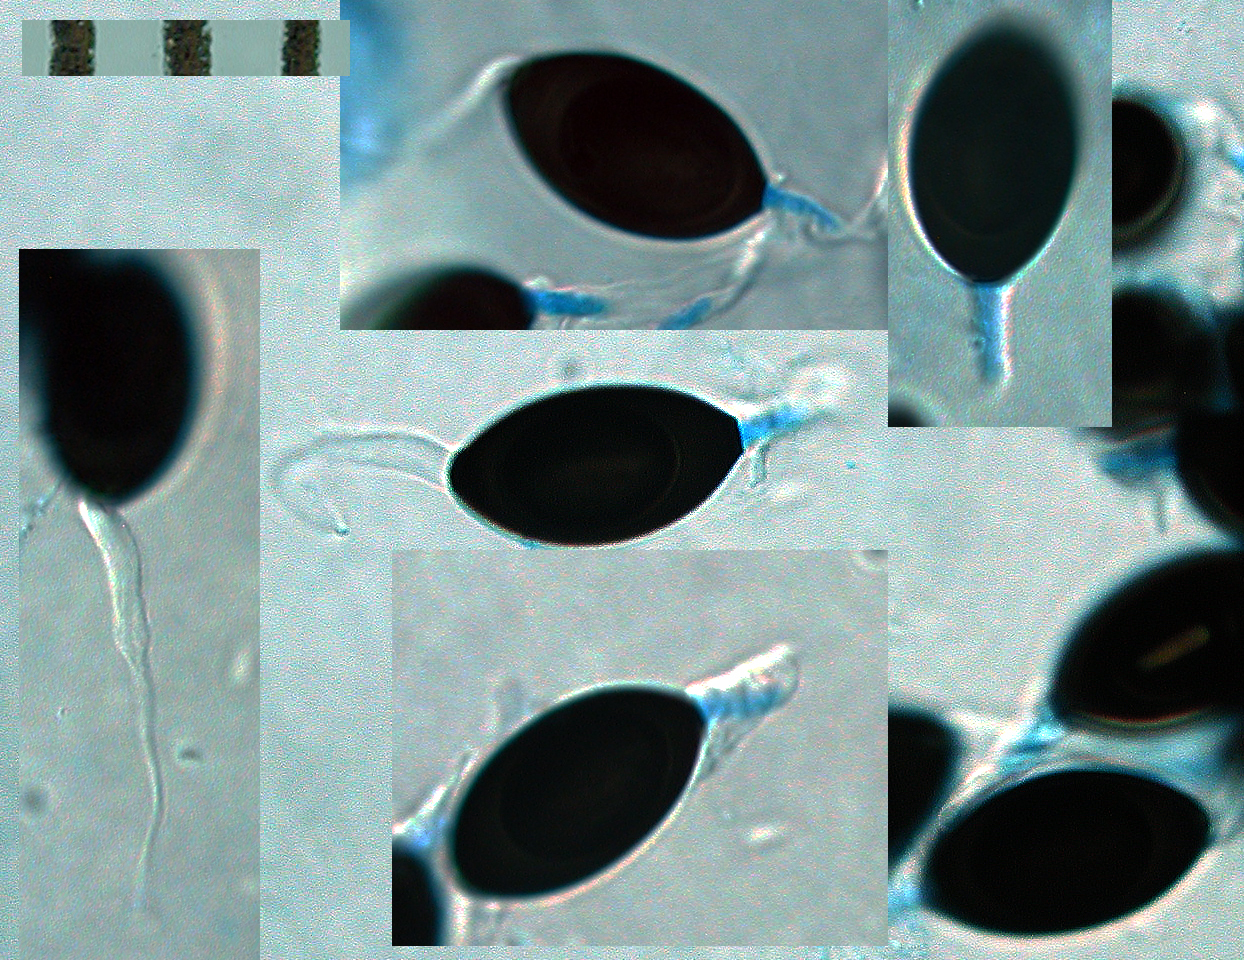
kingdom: Fungi
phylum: Ascomycota
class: Sordariomycetes
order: Sordariales
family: Neoschizotheciaceae
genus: Neoschizothecium
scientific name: Neoschizothecium conicum
